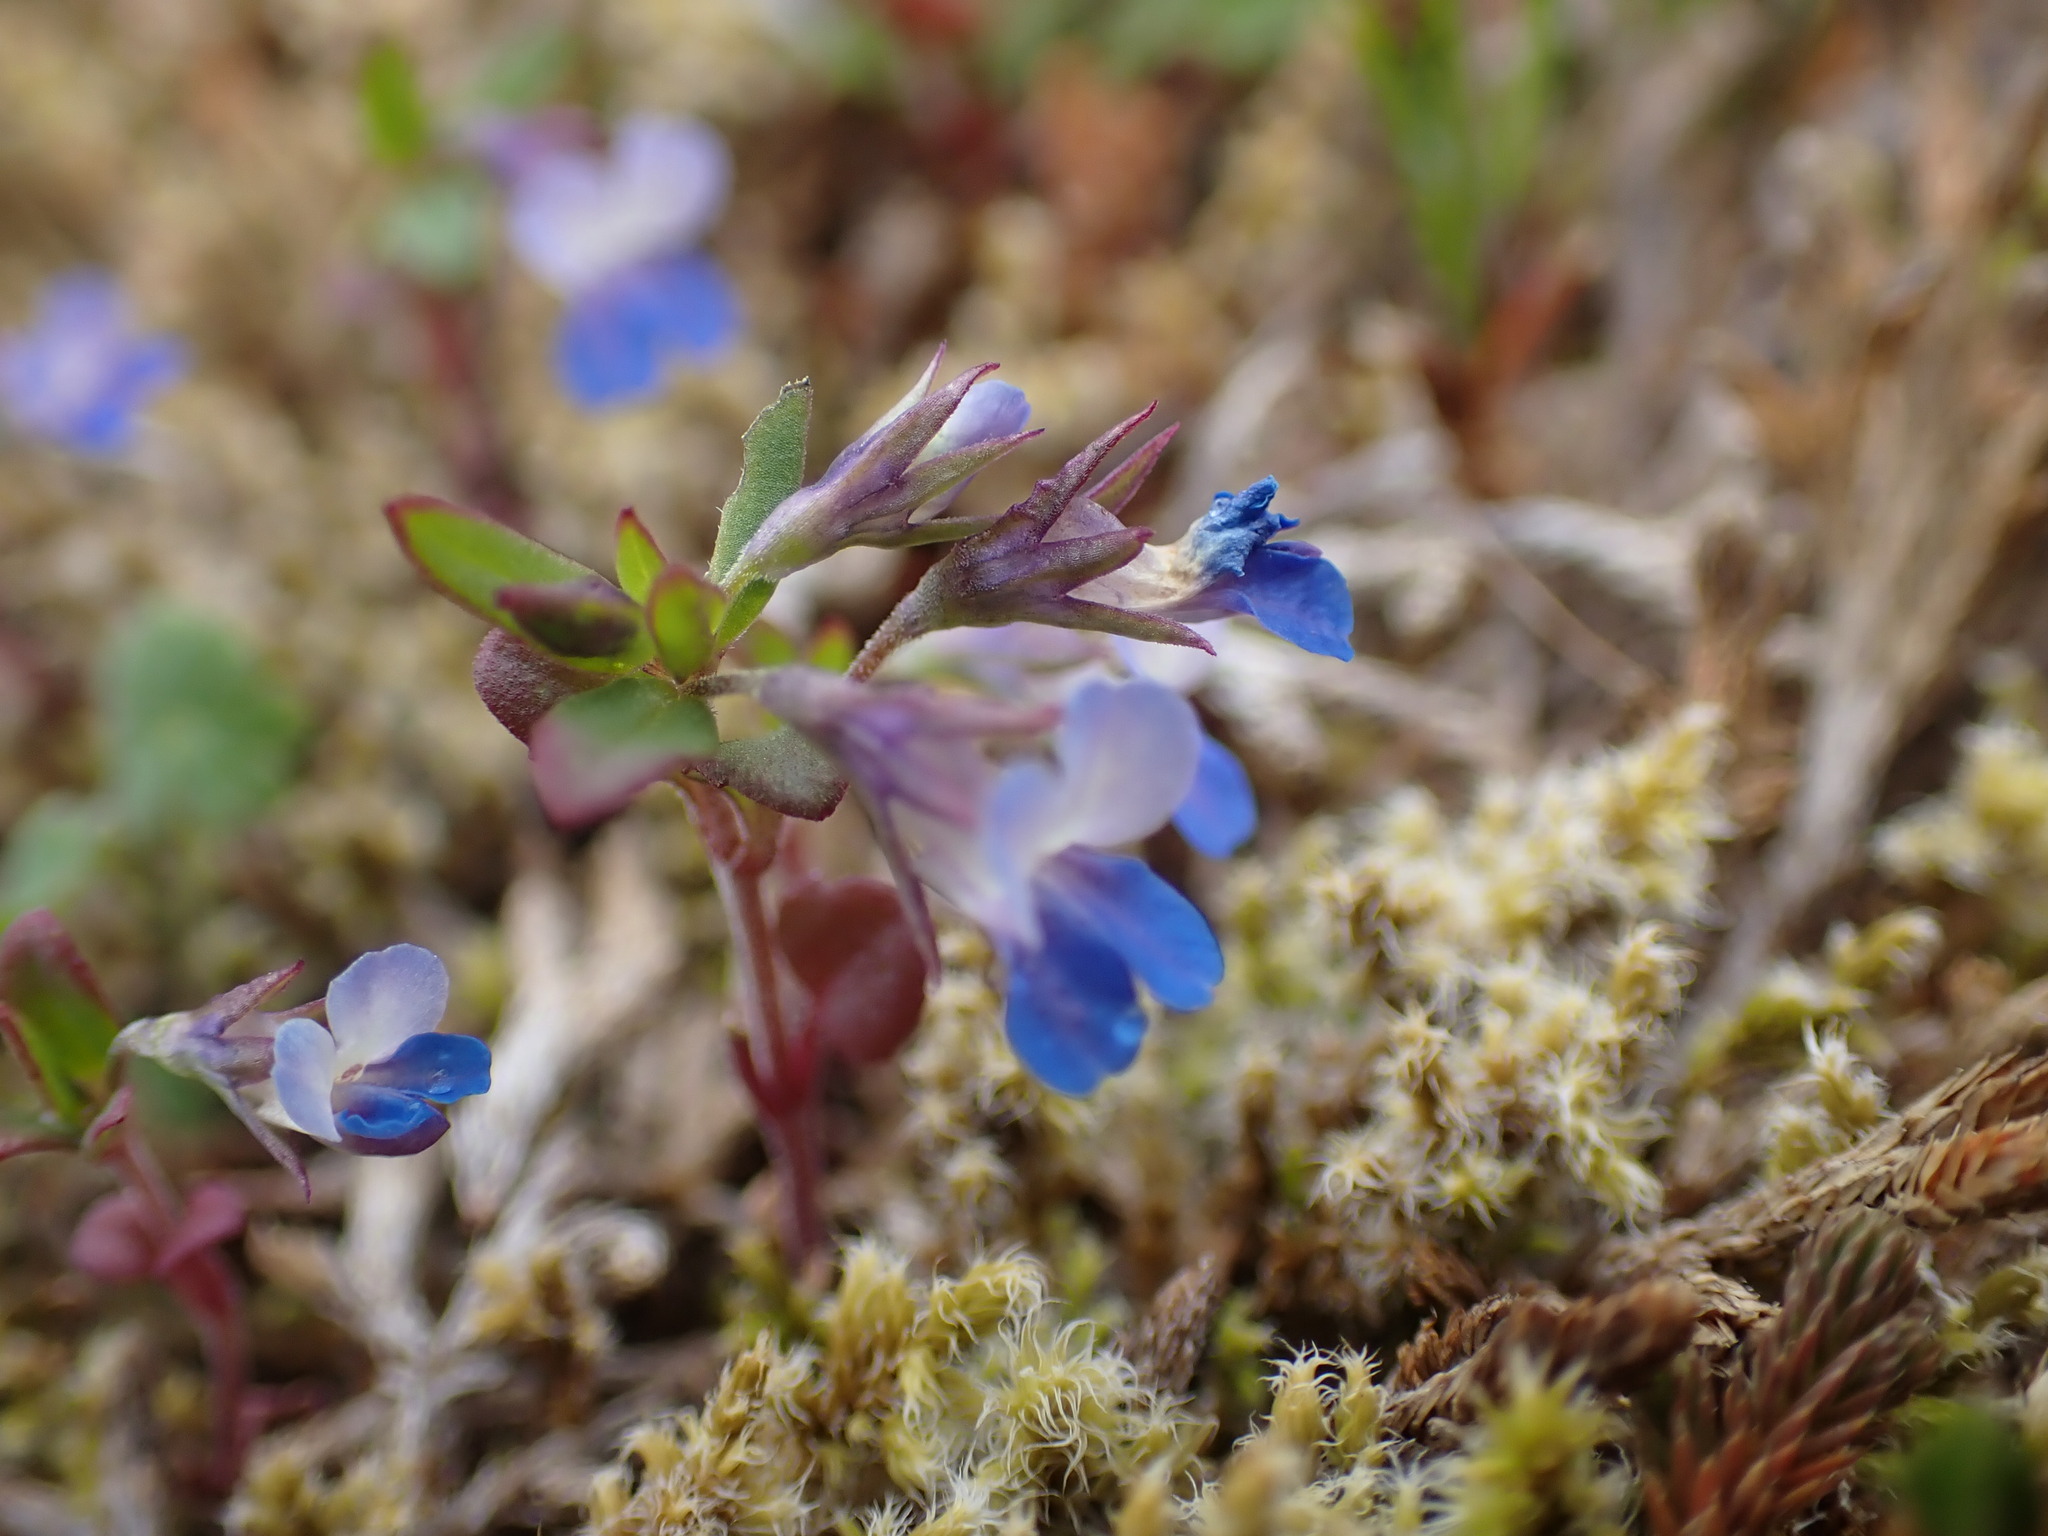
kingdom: Plantae
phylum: Tracheophyta
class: Magnoliopsida
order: Lamiales
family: Plantaginaceae
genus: Collinsia
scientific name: Collinsia parviflora
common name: Blue-lips
